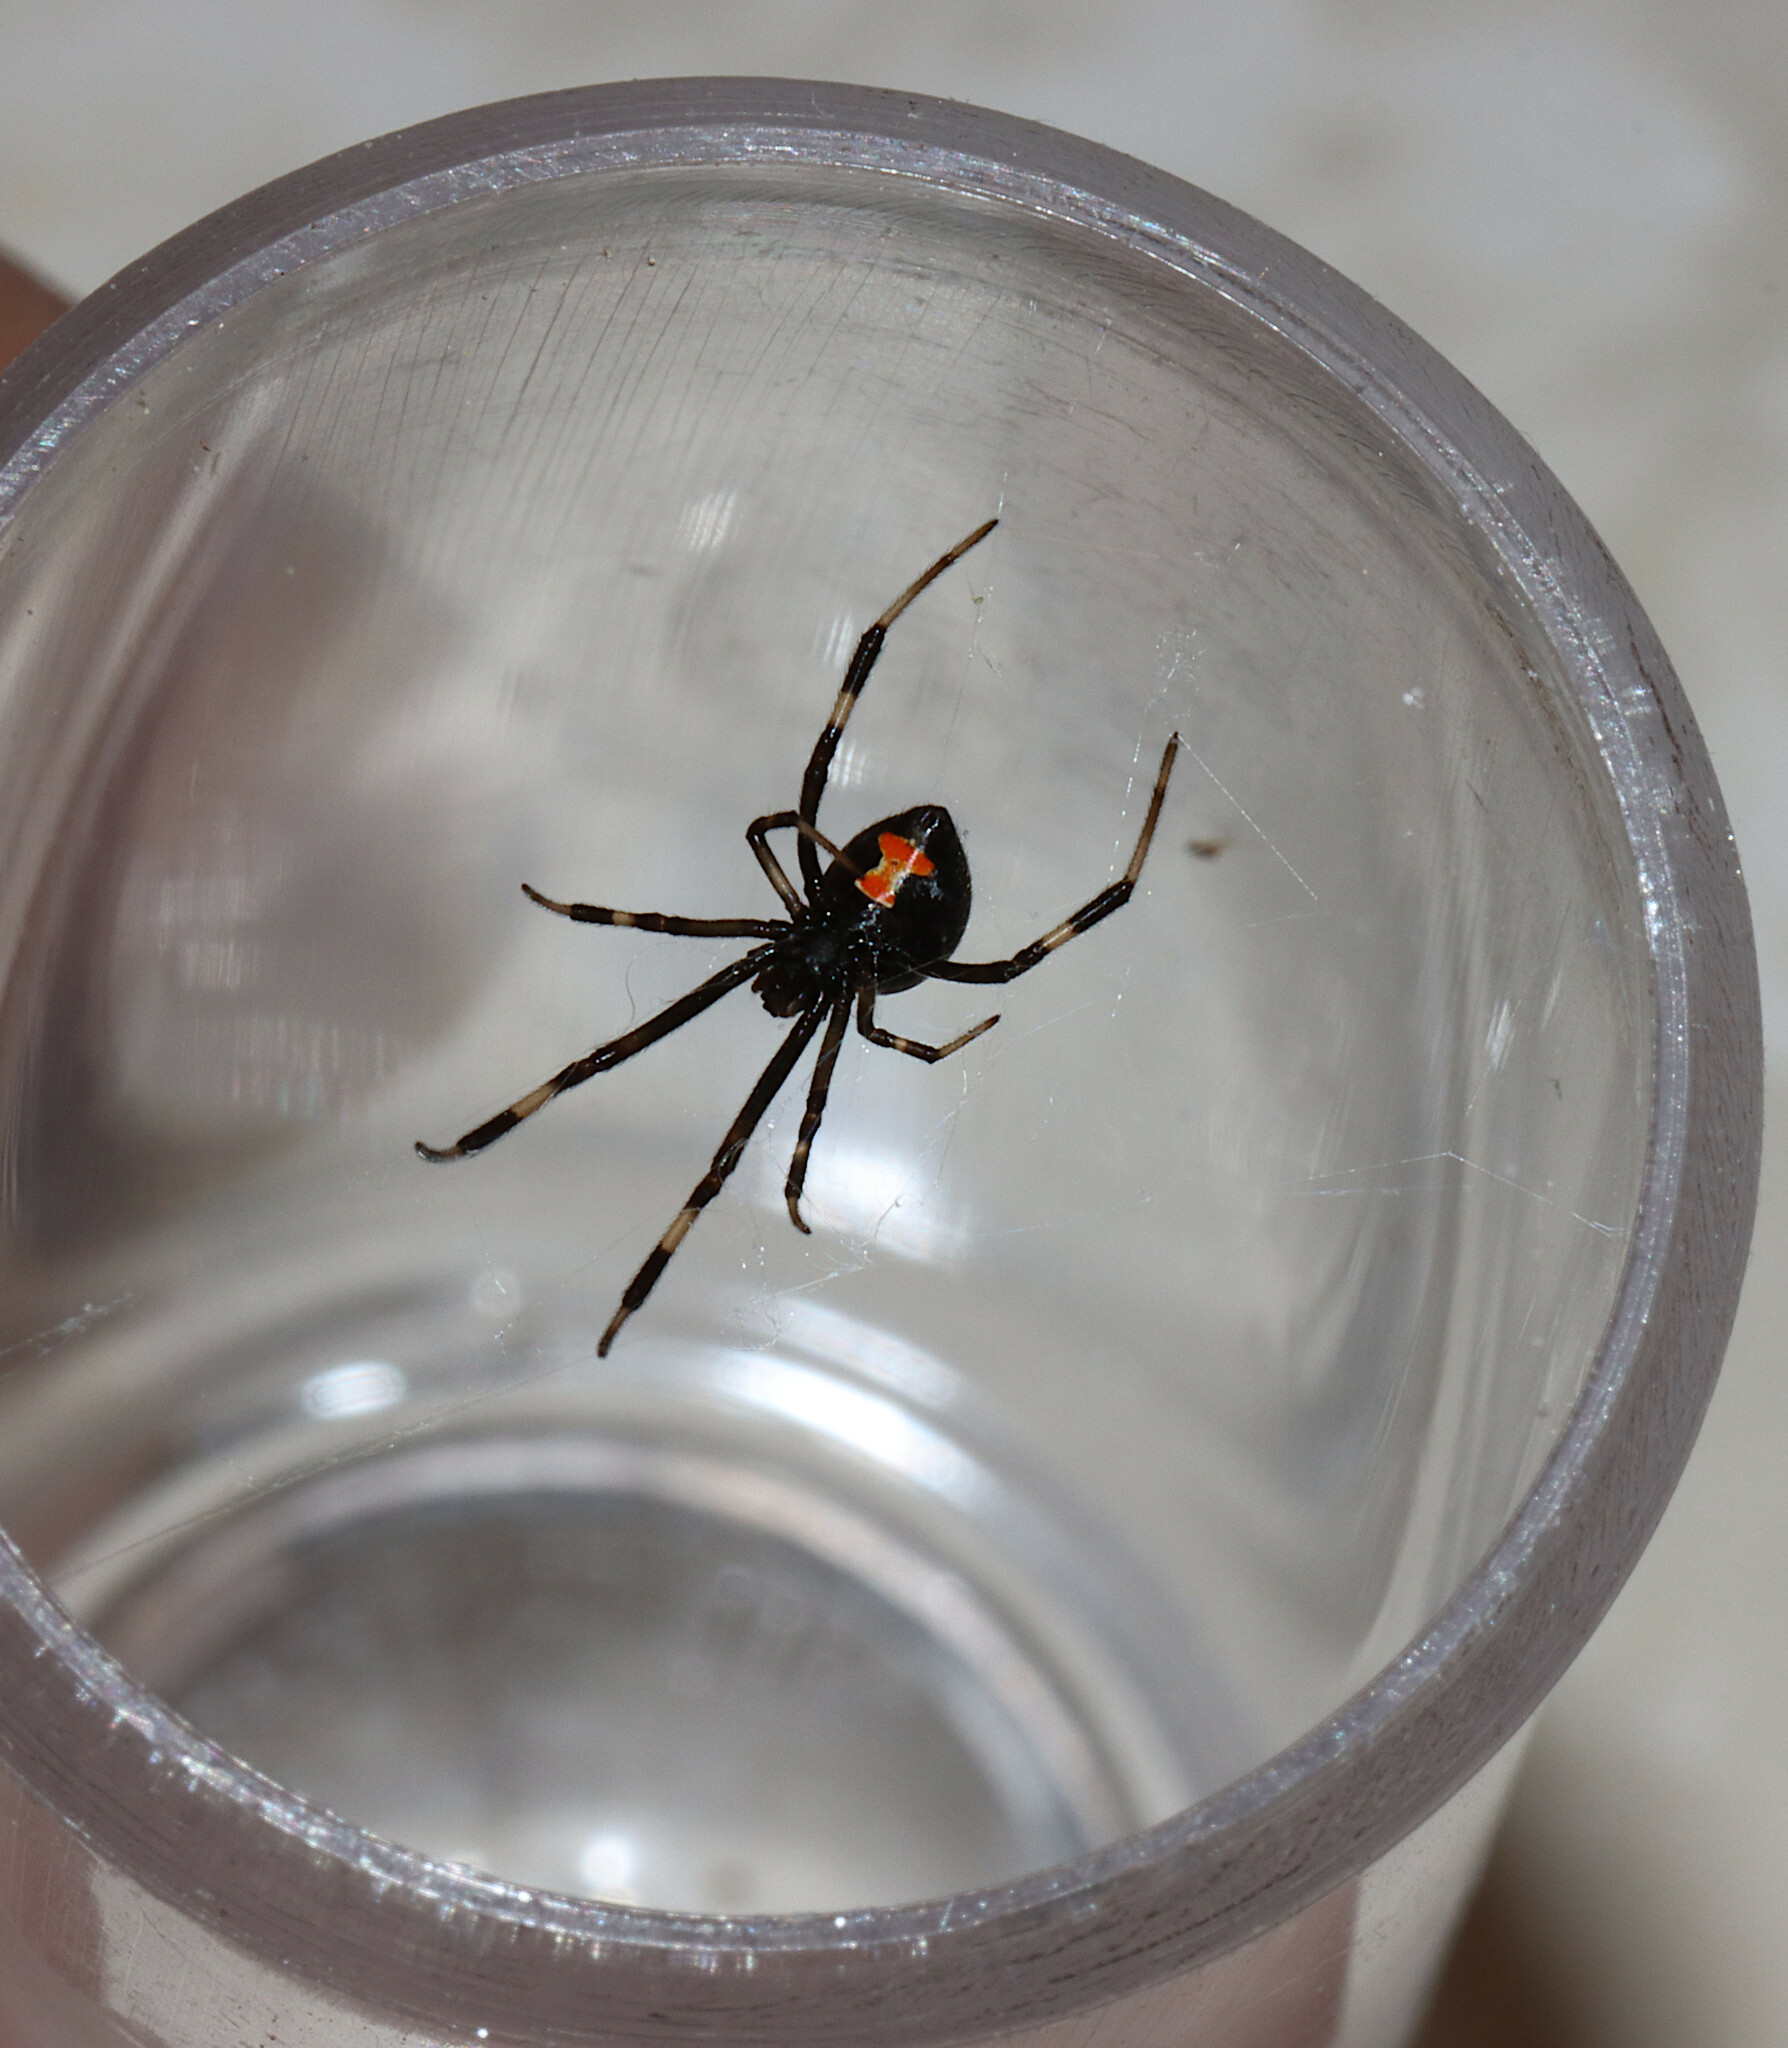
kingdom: Animalia
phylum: Arthropoda
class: Arachnida
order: Araneae
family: Theridiidae
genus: Latrodectus
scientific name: Latrodectus mactans
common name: Cobweb spiders
